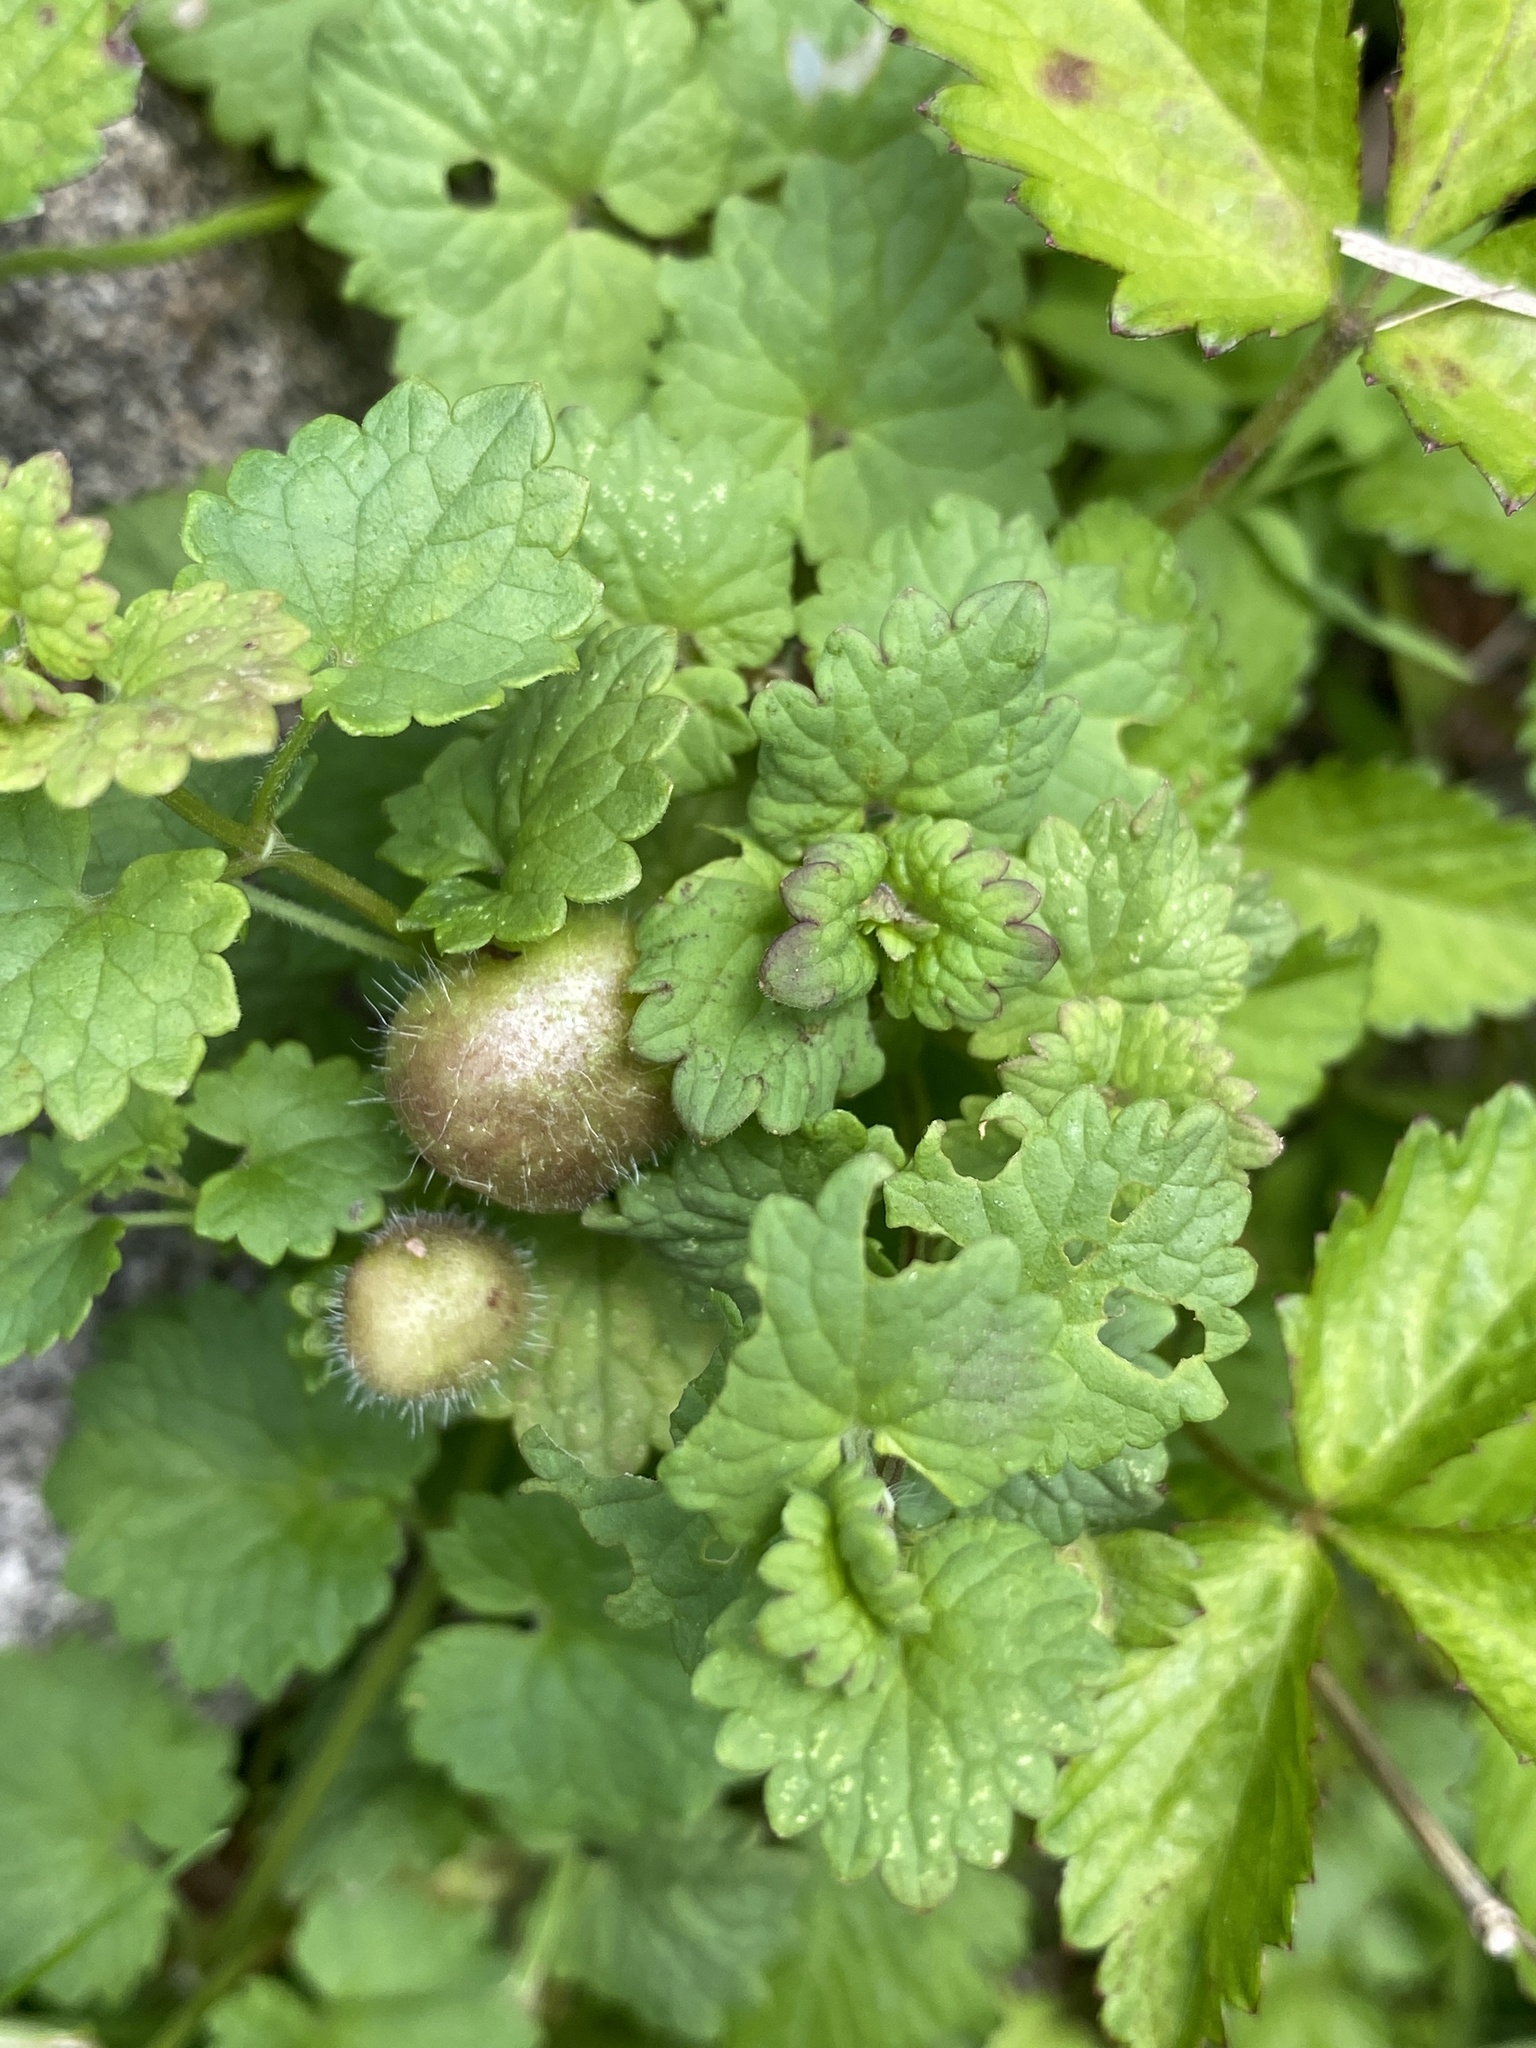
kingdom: Plantae
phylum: Tracheophyta
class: Magnoliopsida
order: Lamiales
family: Lamiaceae
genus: Glechoma
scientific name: Glechoma hederacea
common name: Ground ivy
